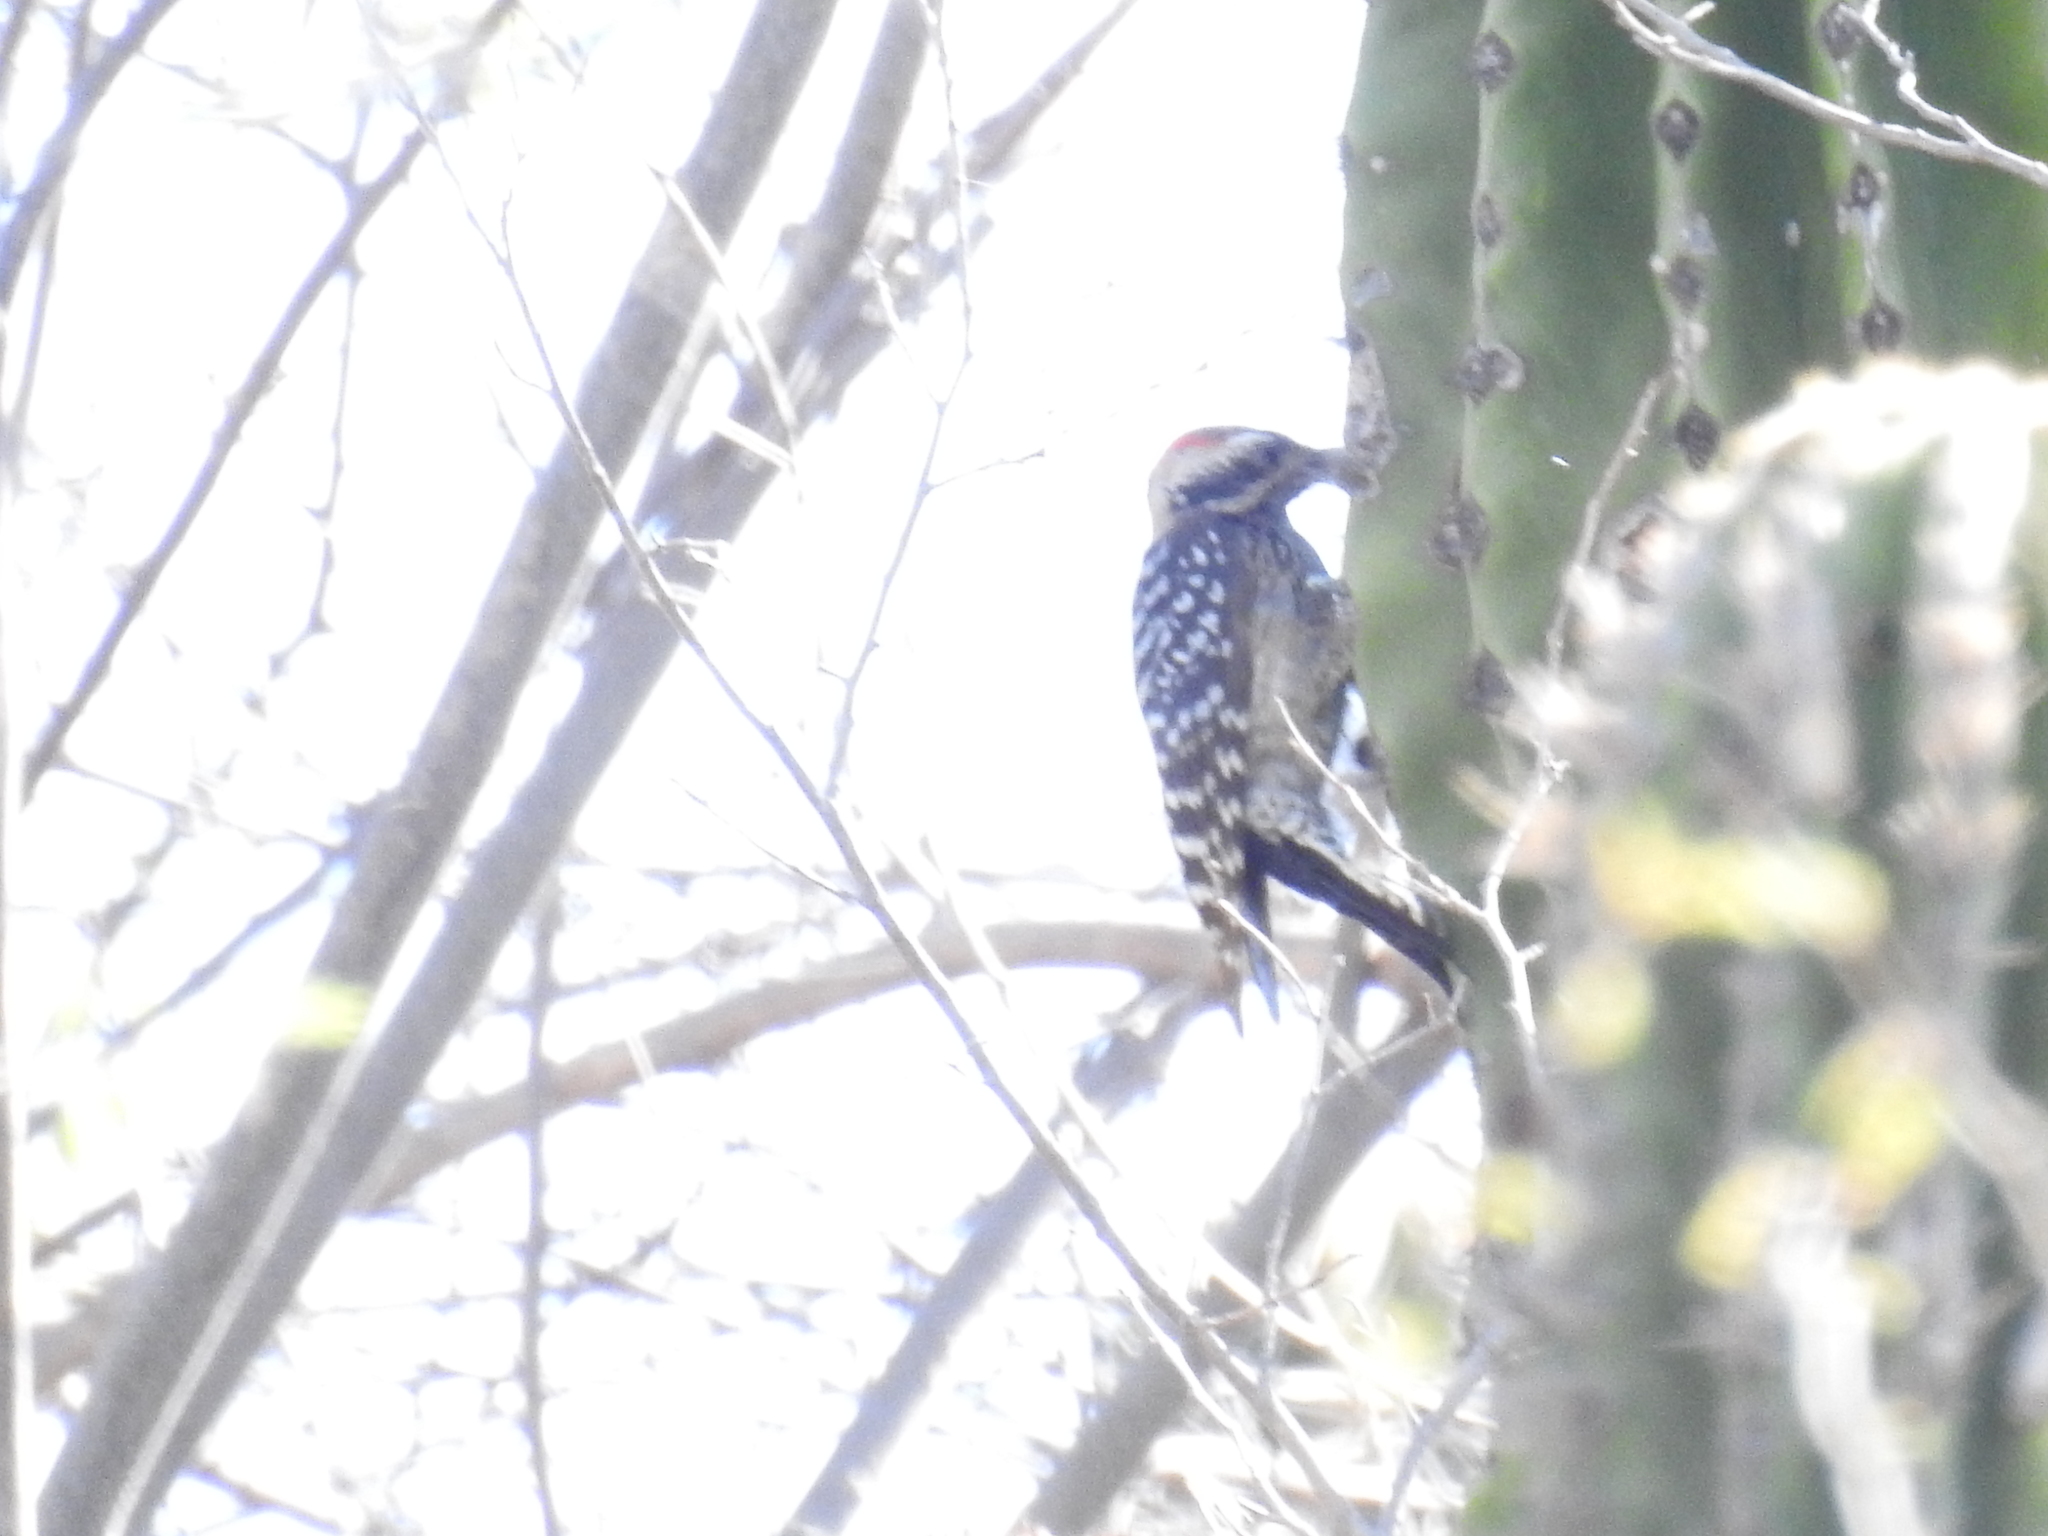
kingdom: Animalia
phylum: Chordata
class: Aves
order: Piciformes
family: Picidae
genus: Dryobates
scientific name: Dryobates scalaris
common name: Ladder-backed woodpecker
